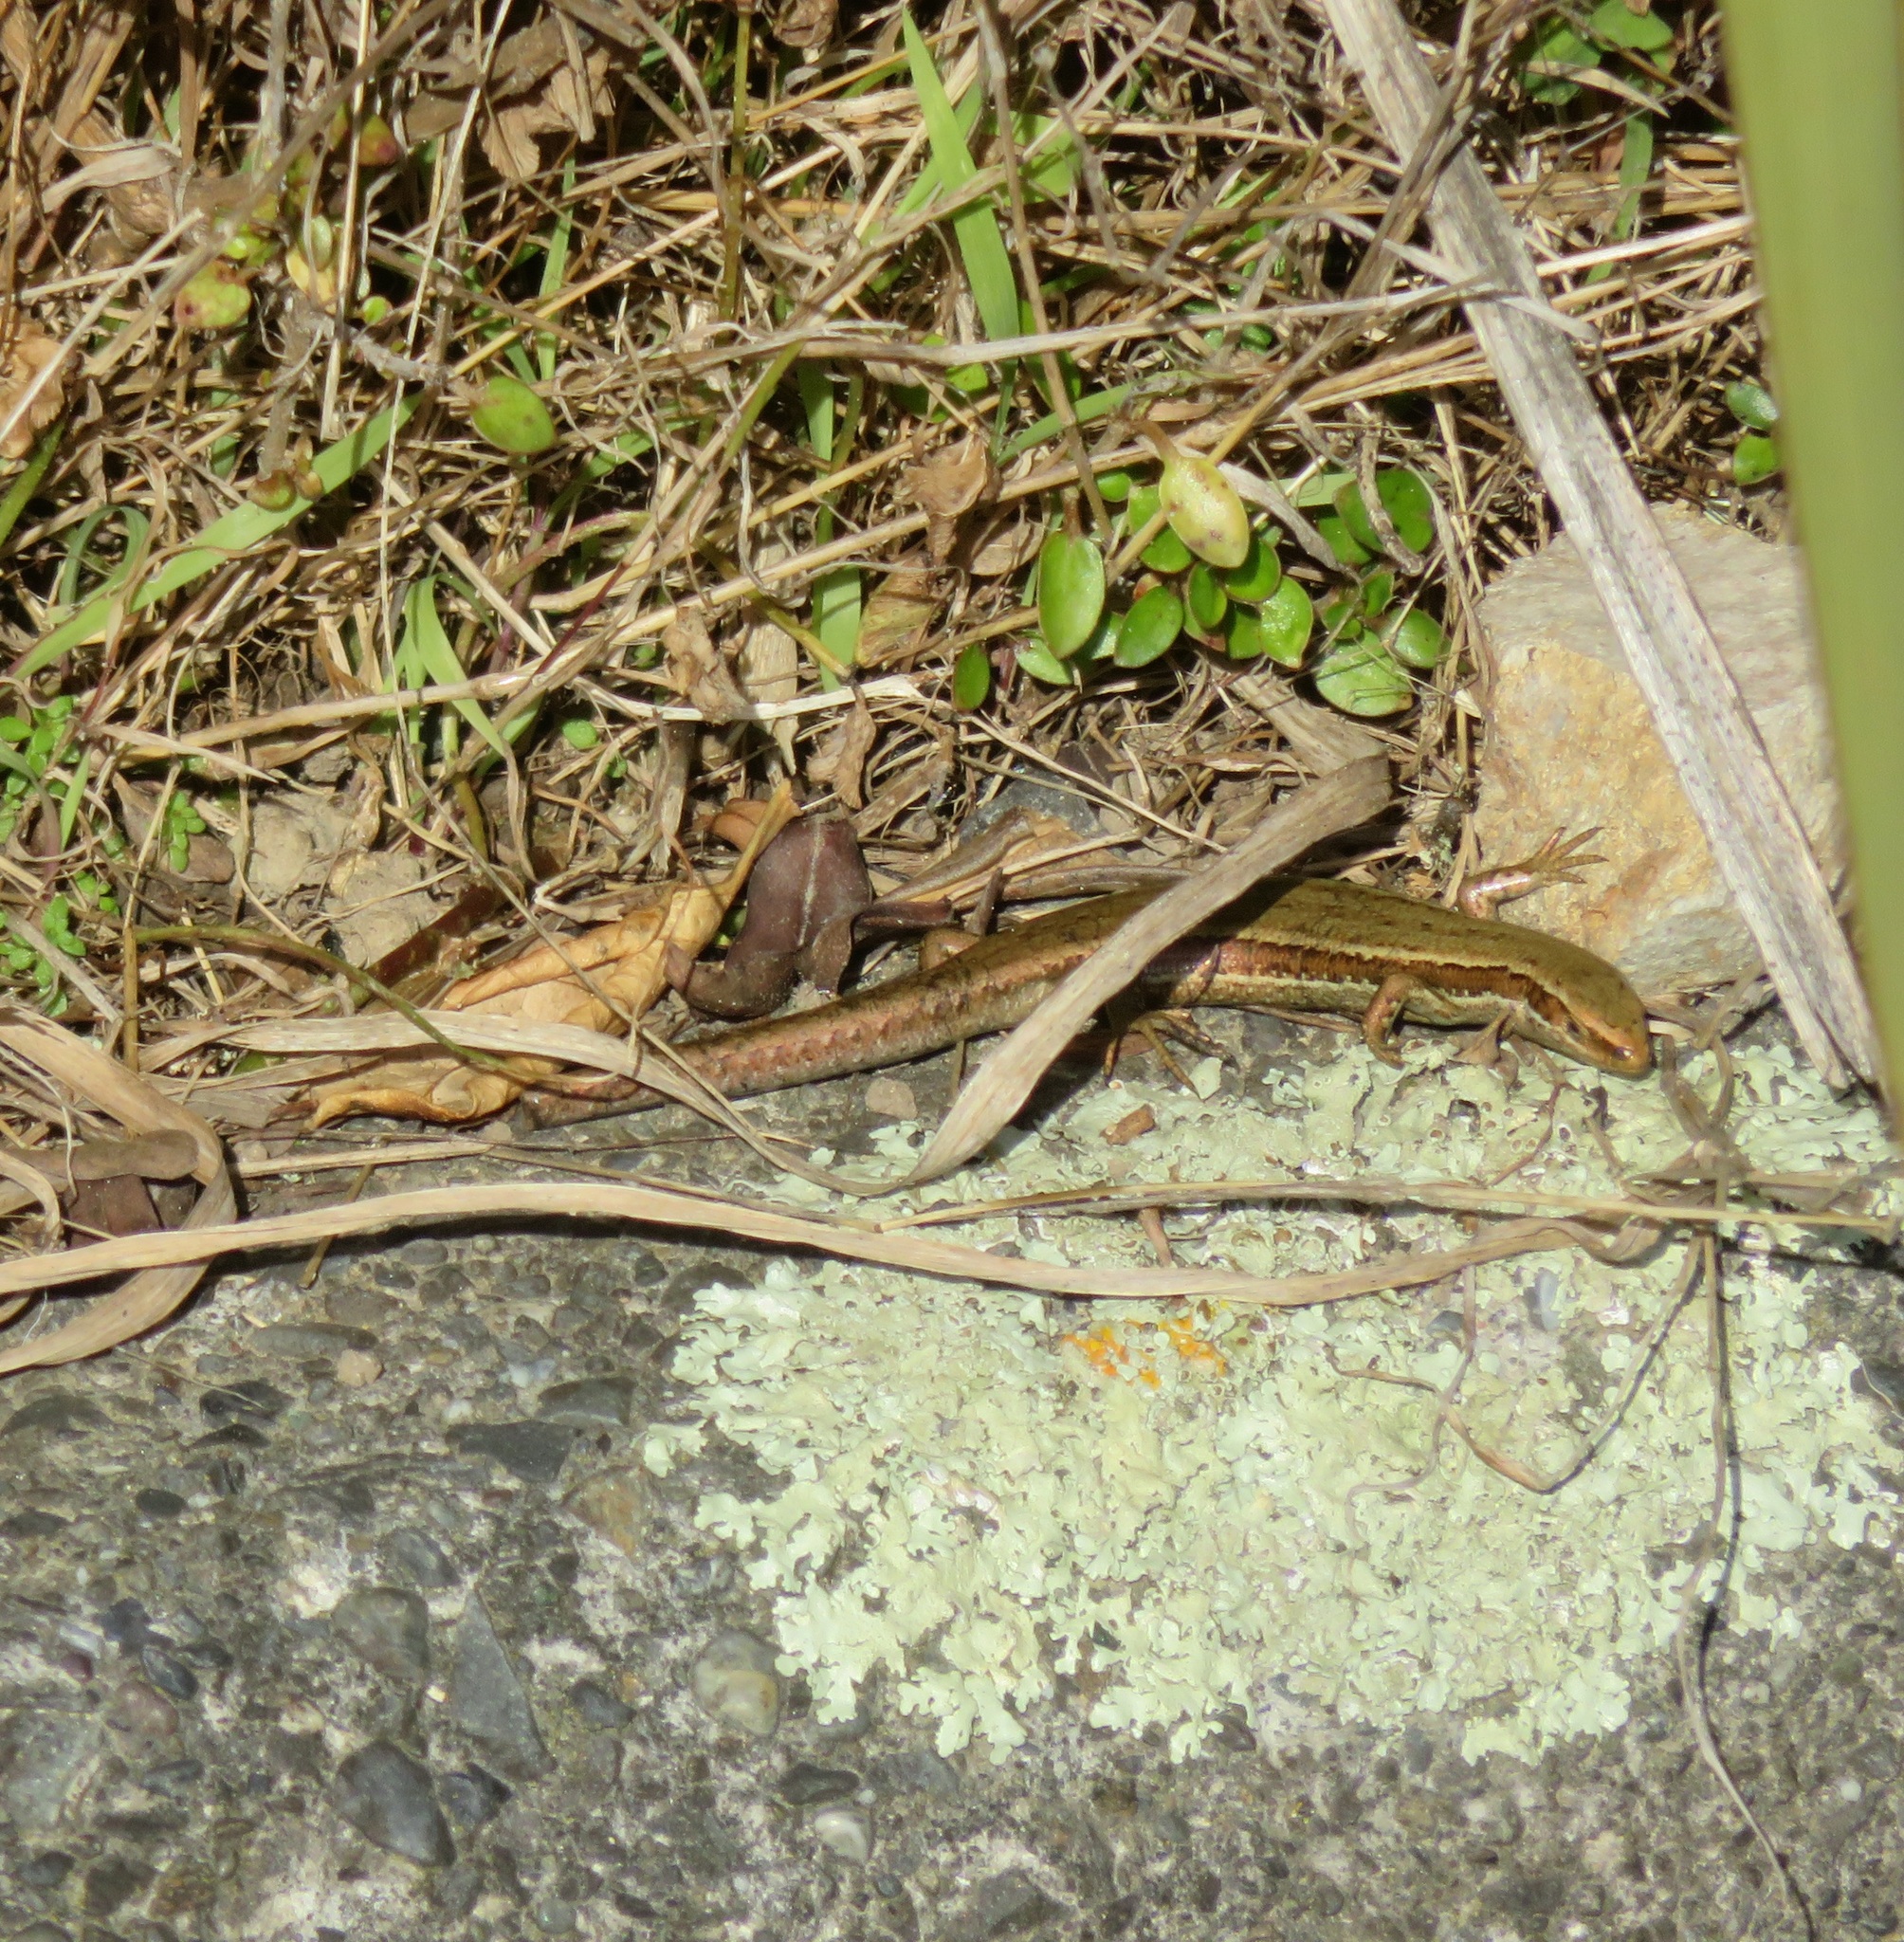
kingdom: Animalia
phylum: Chordata
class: Squamata
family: Scincidae
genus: Oligosoma
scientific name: Oligosoma polychroma
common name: Common new zealand skink
